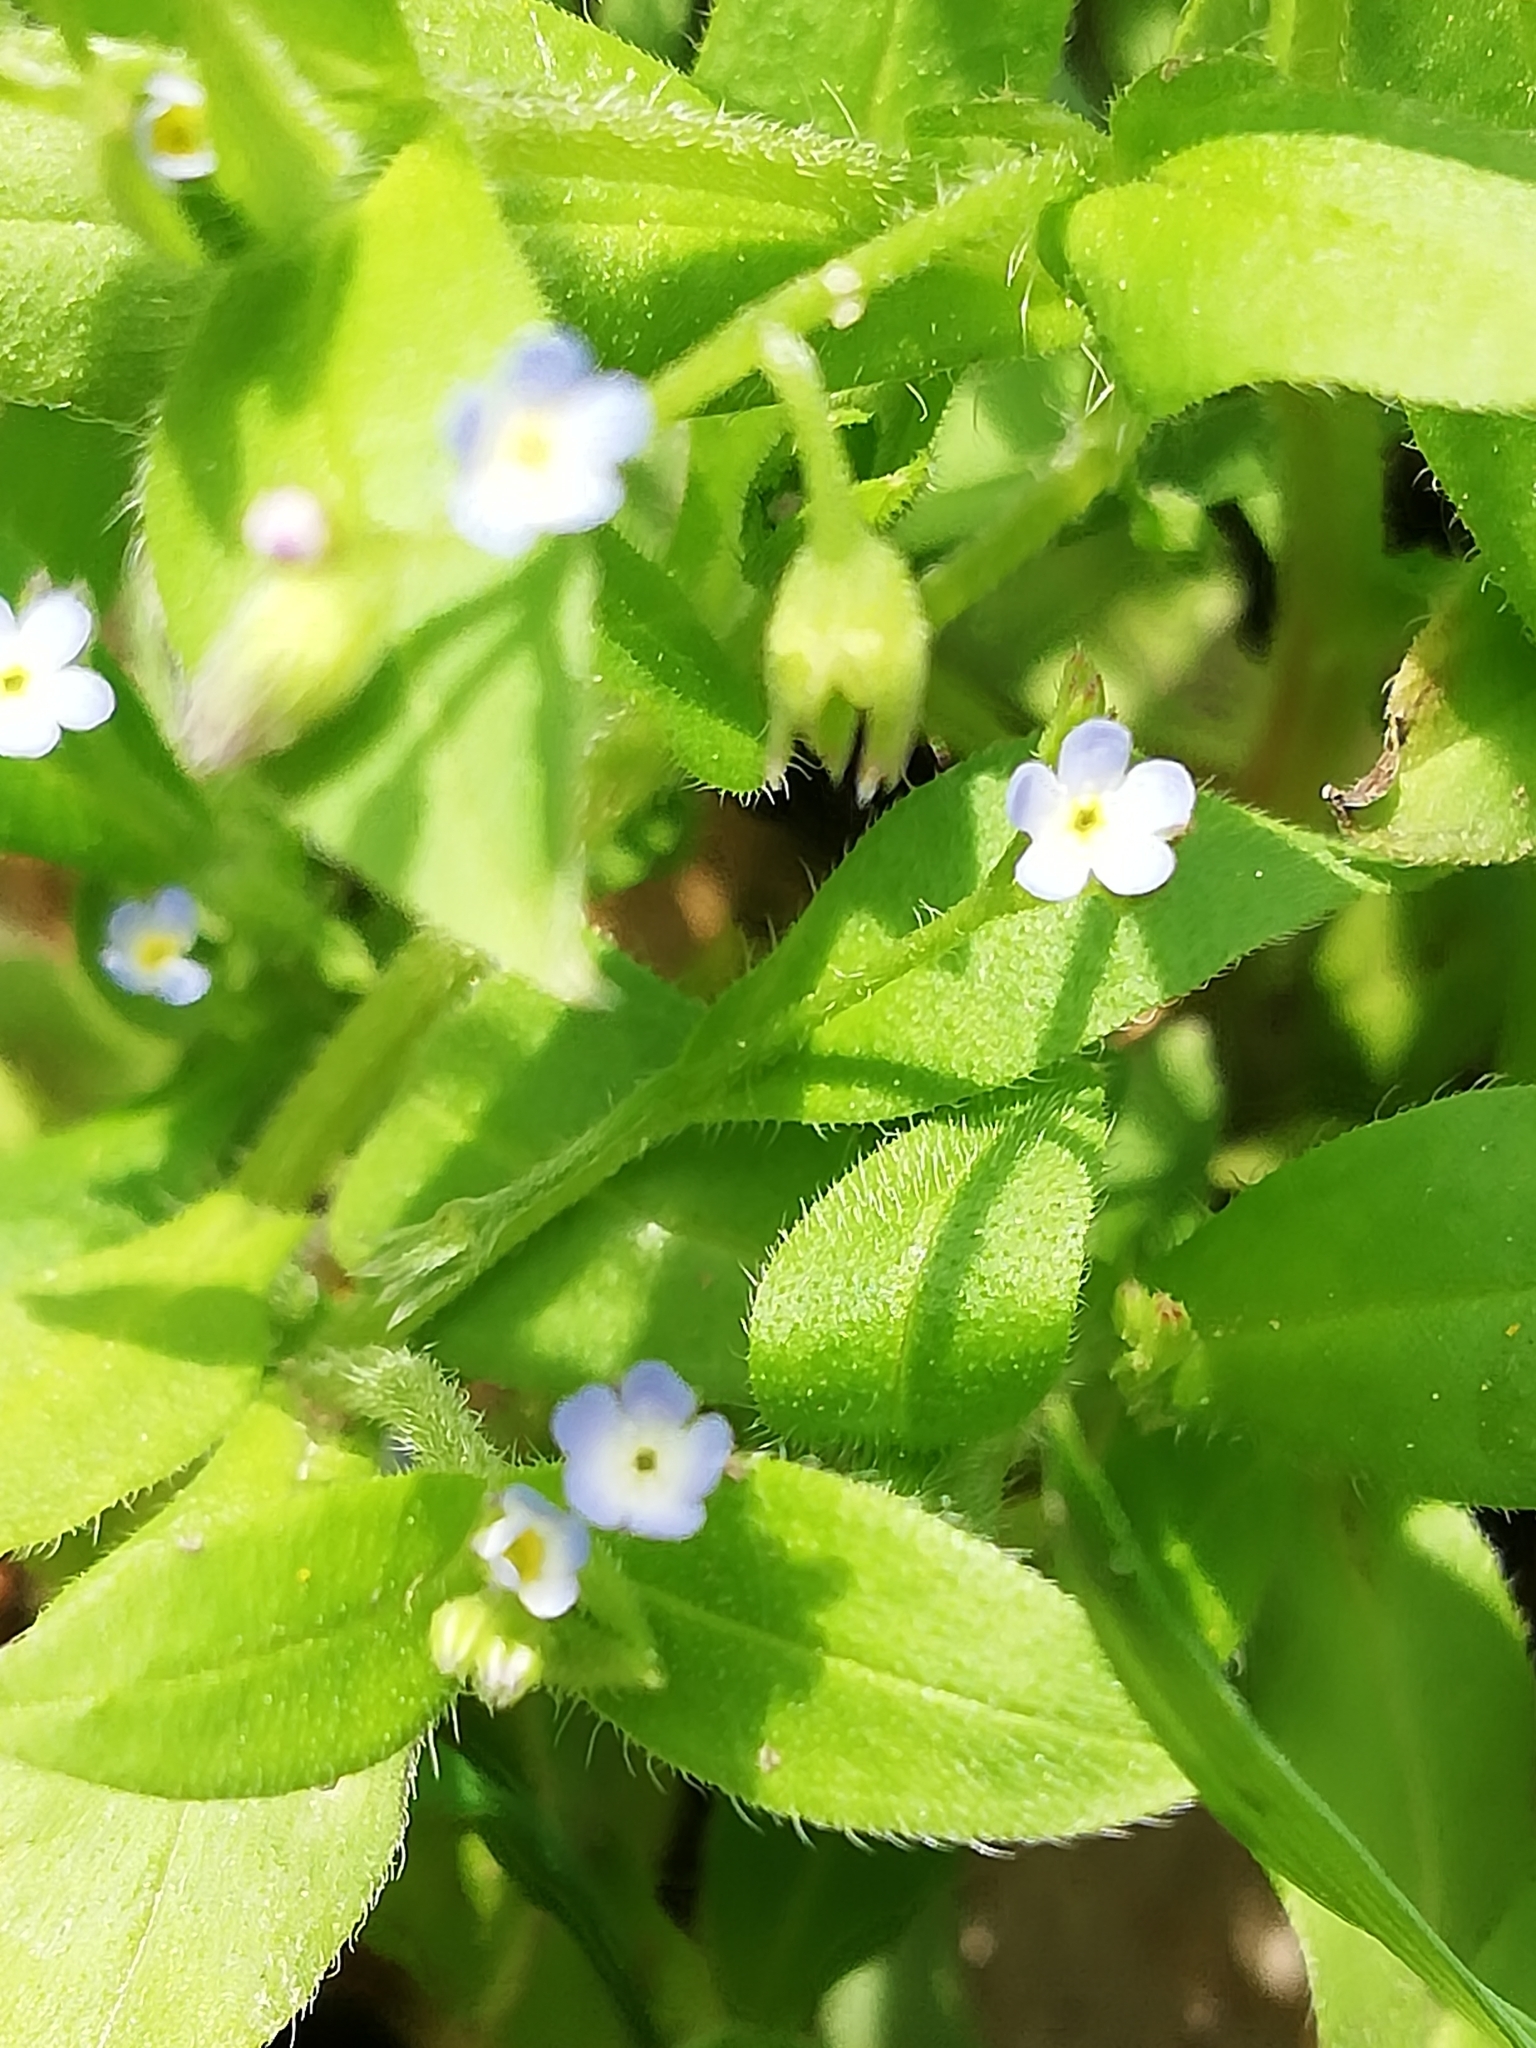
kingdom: Plantae
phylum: Tracheophyta
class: Magnoliopsida
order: Boraginales
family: Boraginaceae
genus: Myosotis
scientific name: Myosotis sparsiflora
